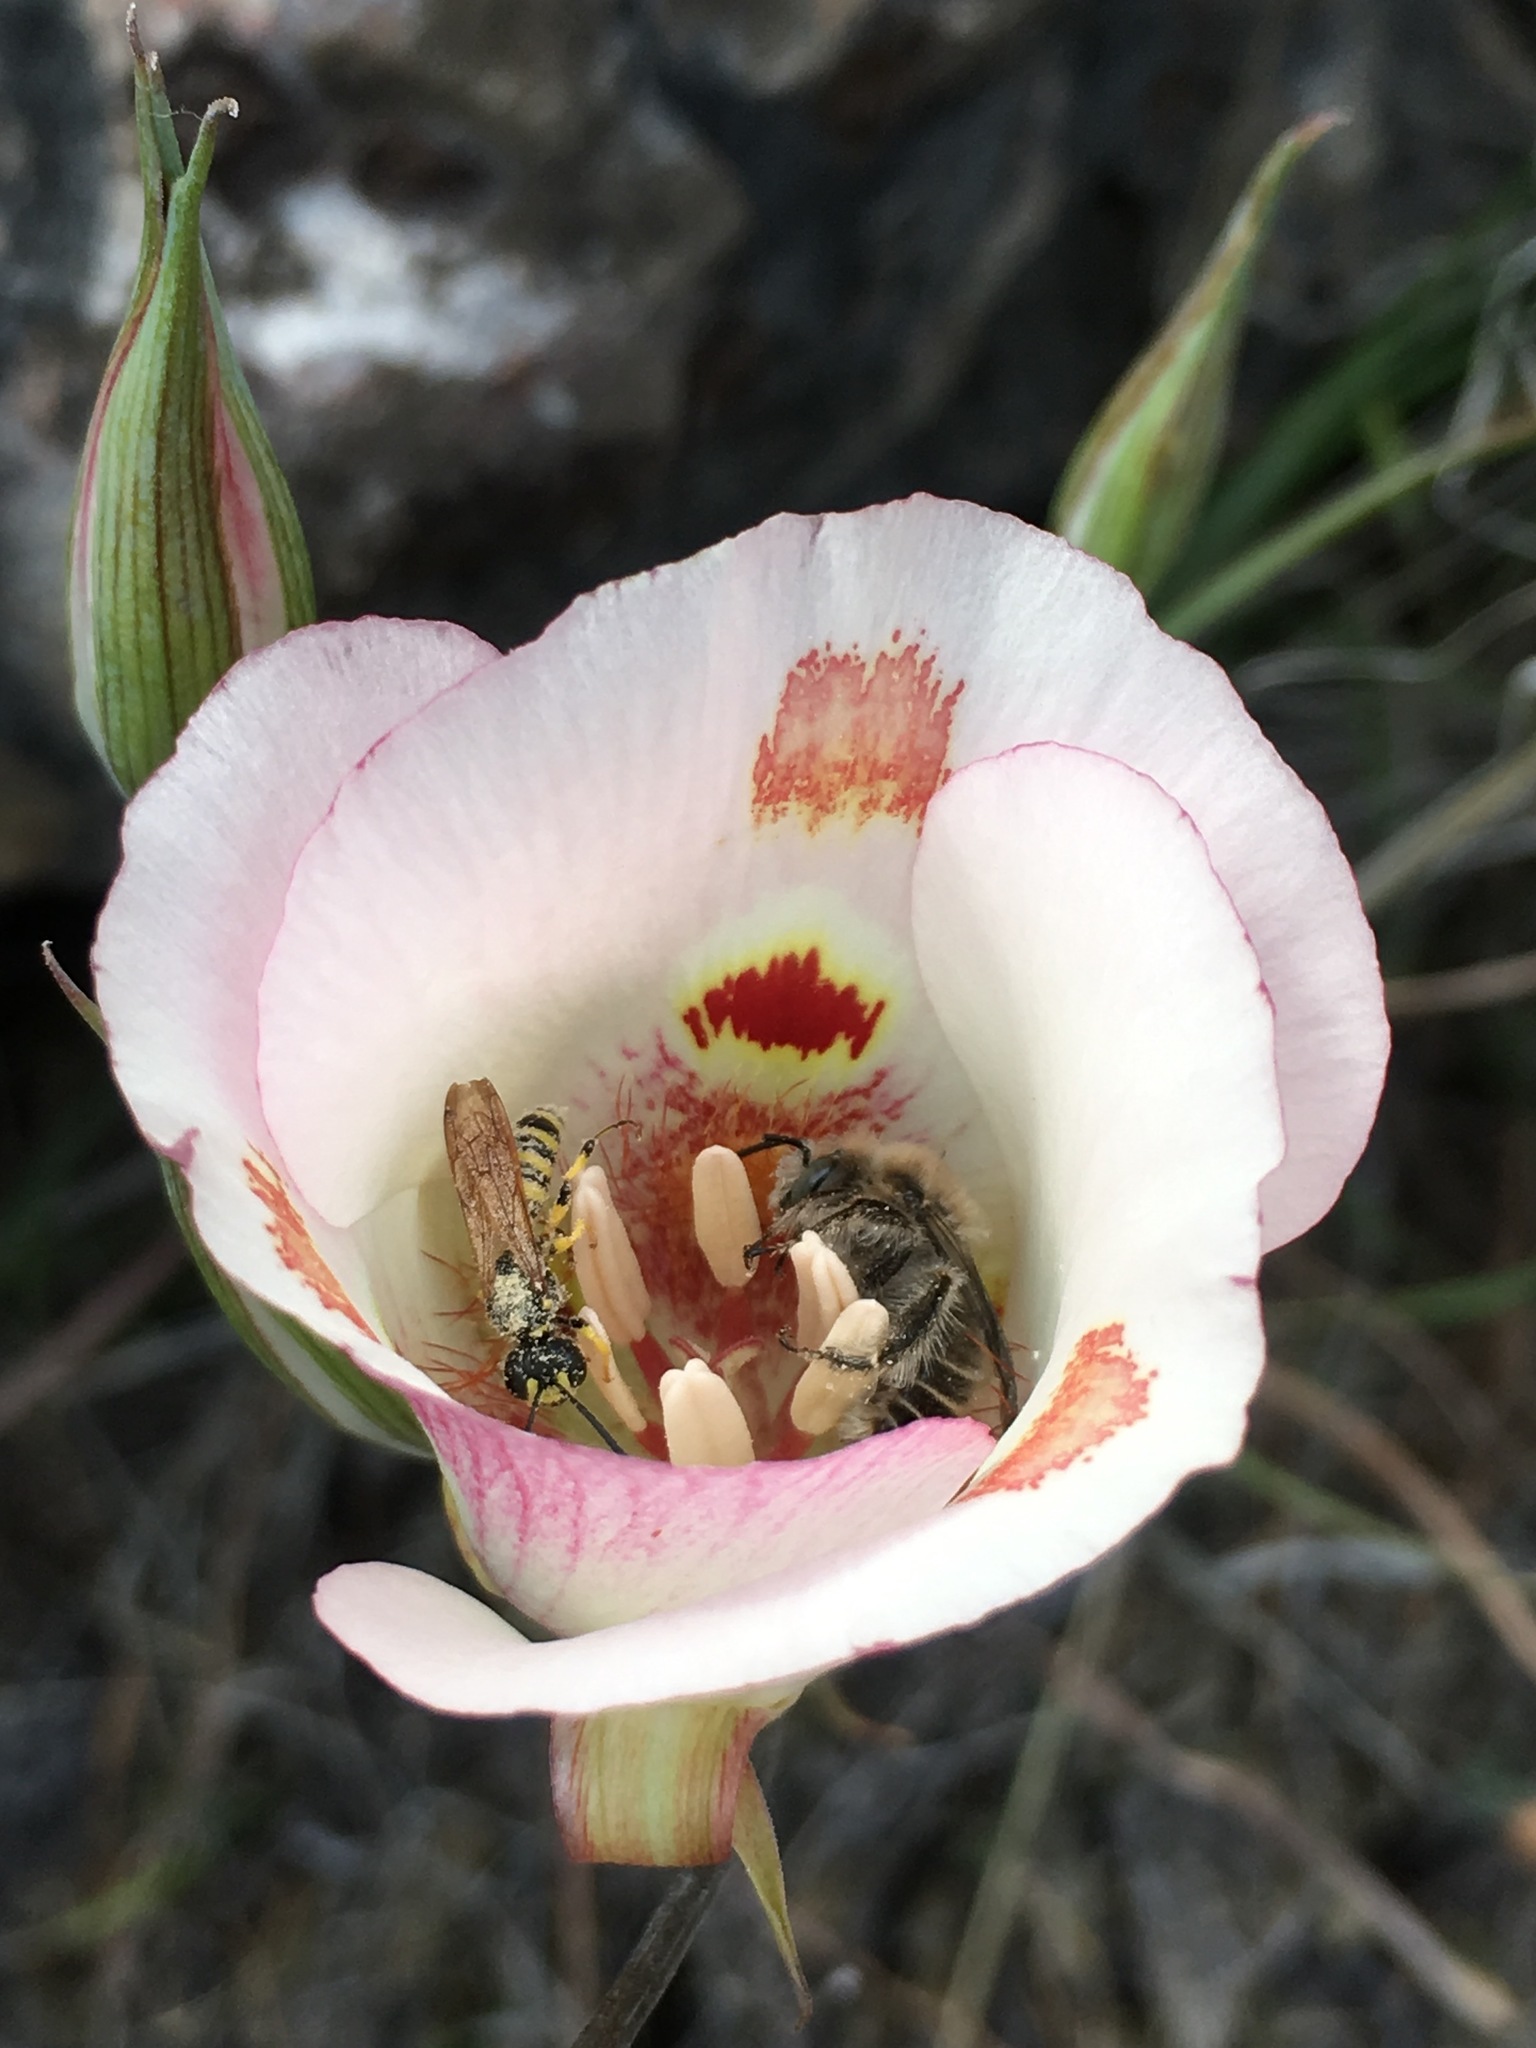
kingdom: Plantae
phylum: Tracheophyta
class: Liliopsida
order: Liliales
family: Liliaceae
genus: Calochortus
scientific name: Calochortus venustus
